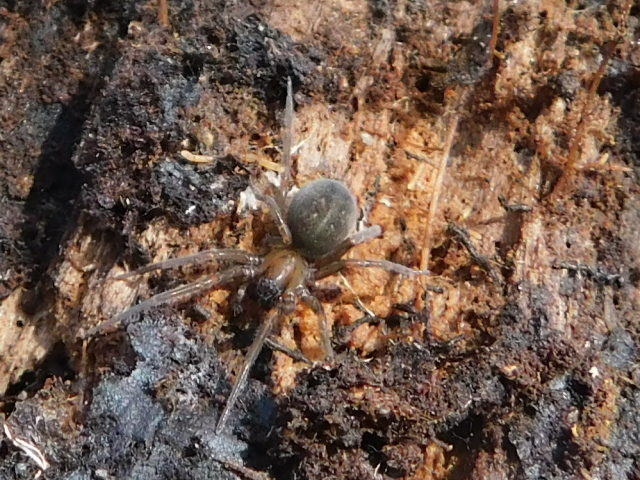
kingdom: Animalia
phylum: Arthropoda
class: Arachnida
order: Araneae
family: Desidae
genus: Metaltella
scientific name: Metaltella simoni
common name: Cribellate spider
